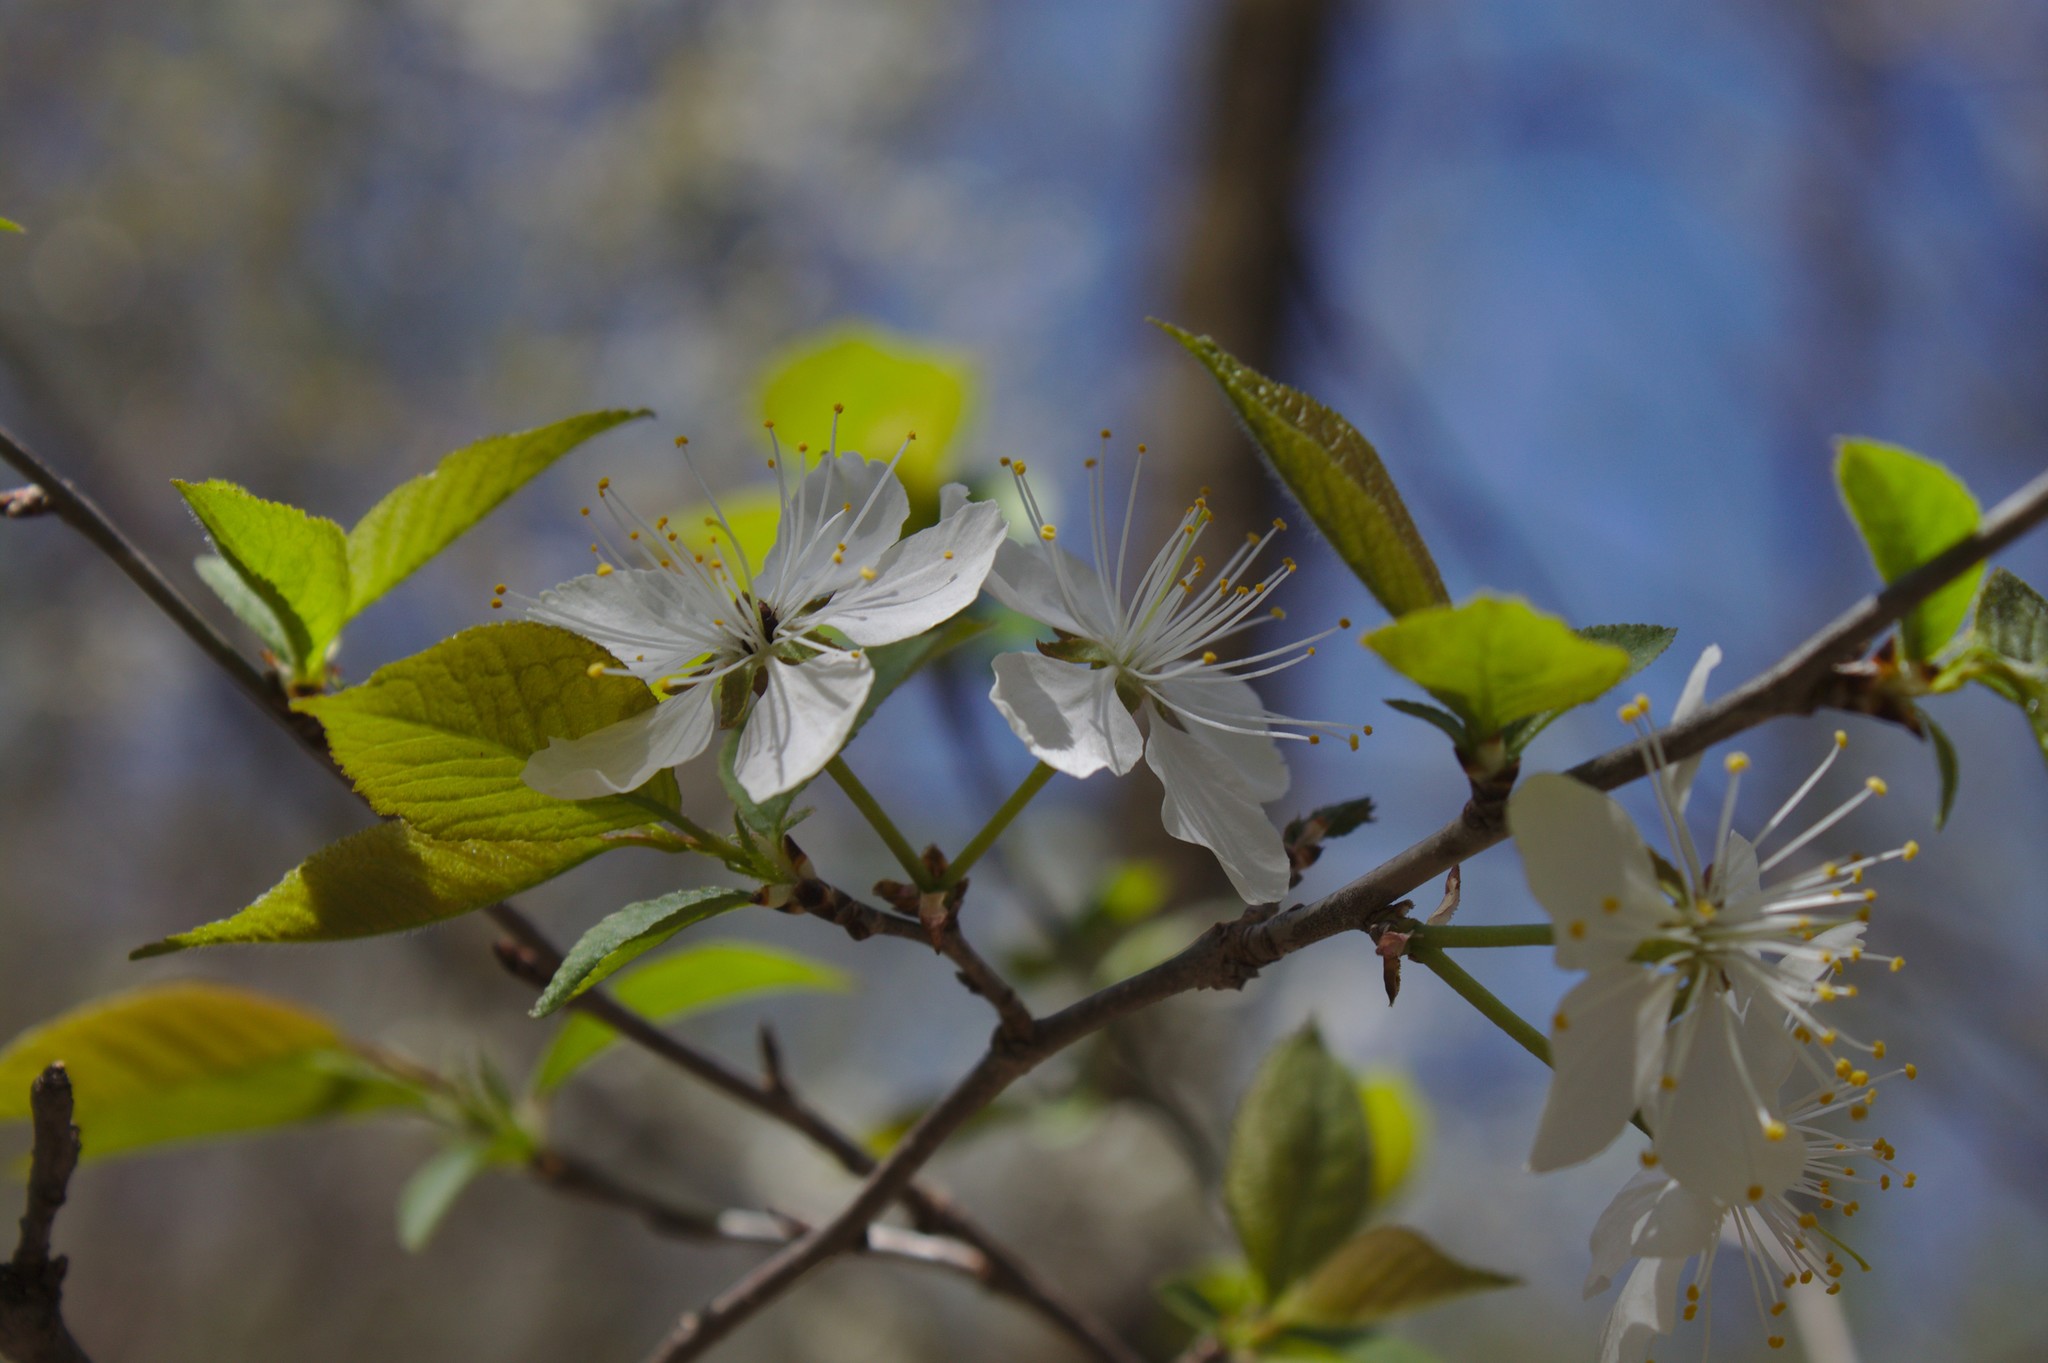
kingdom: Plantae
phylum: Tracheophyta
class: Magnoliopsida
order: Rosales
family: Rosaceae
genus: Prunus
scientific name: Prunus nigra
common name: Black plum
